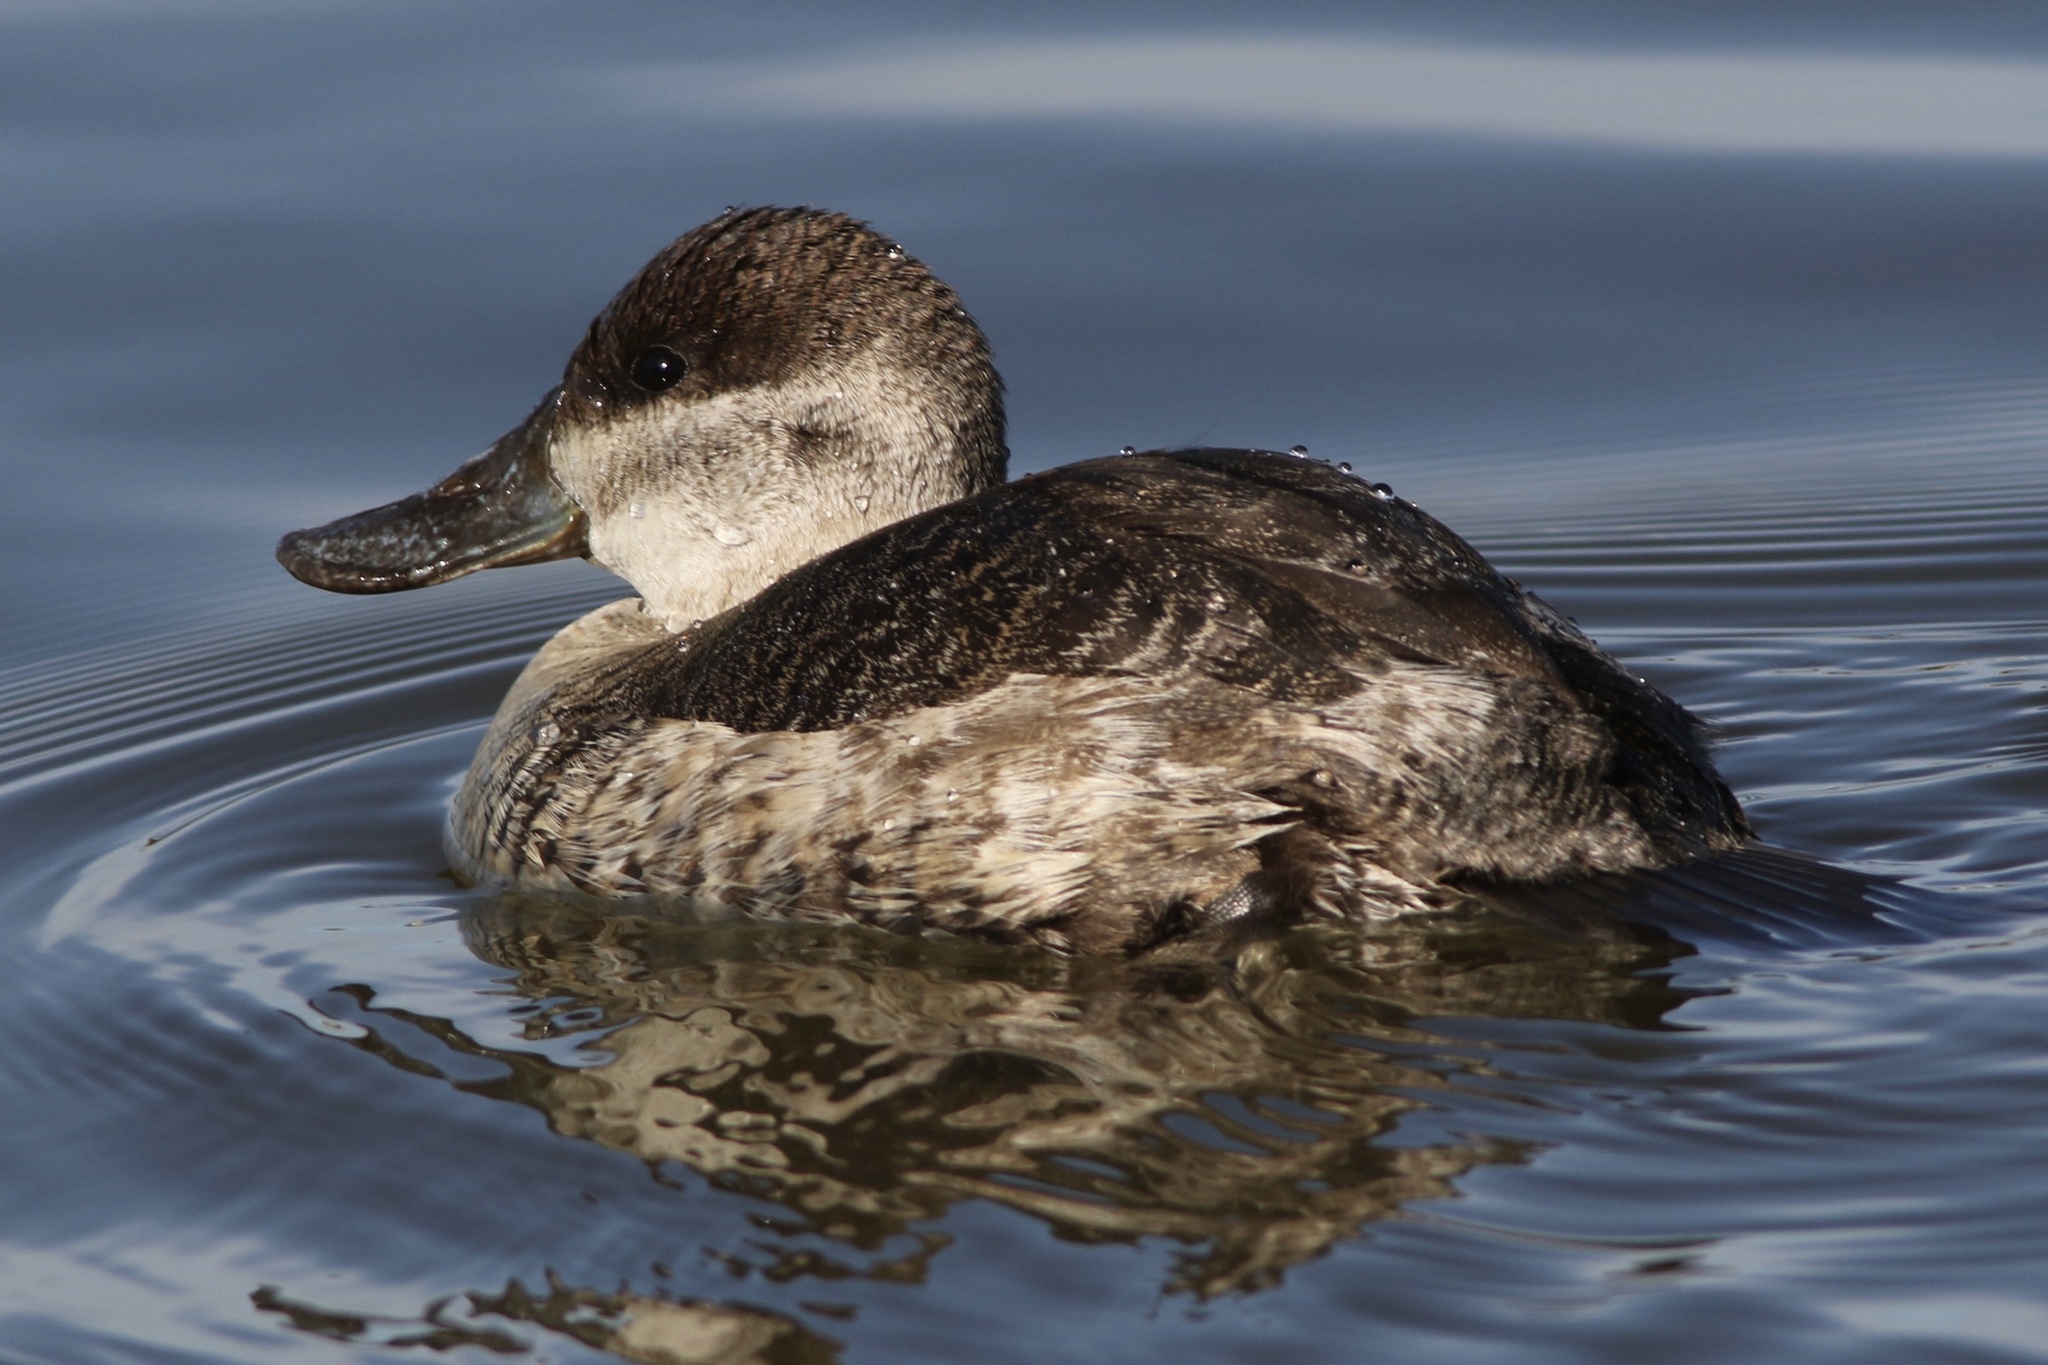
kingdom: Animalia
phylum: Chordata
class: Aves
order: Anseriformes
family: Anatidae
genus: Oxyura
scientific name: Oxyura jamaicensis
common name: Ruddy duck
